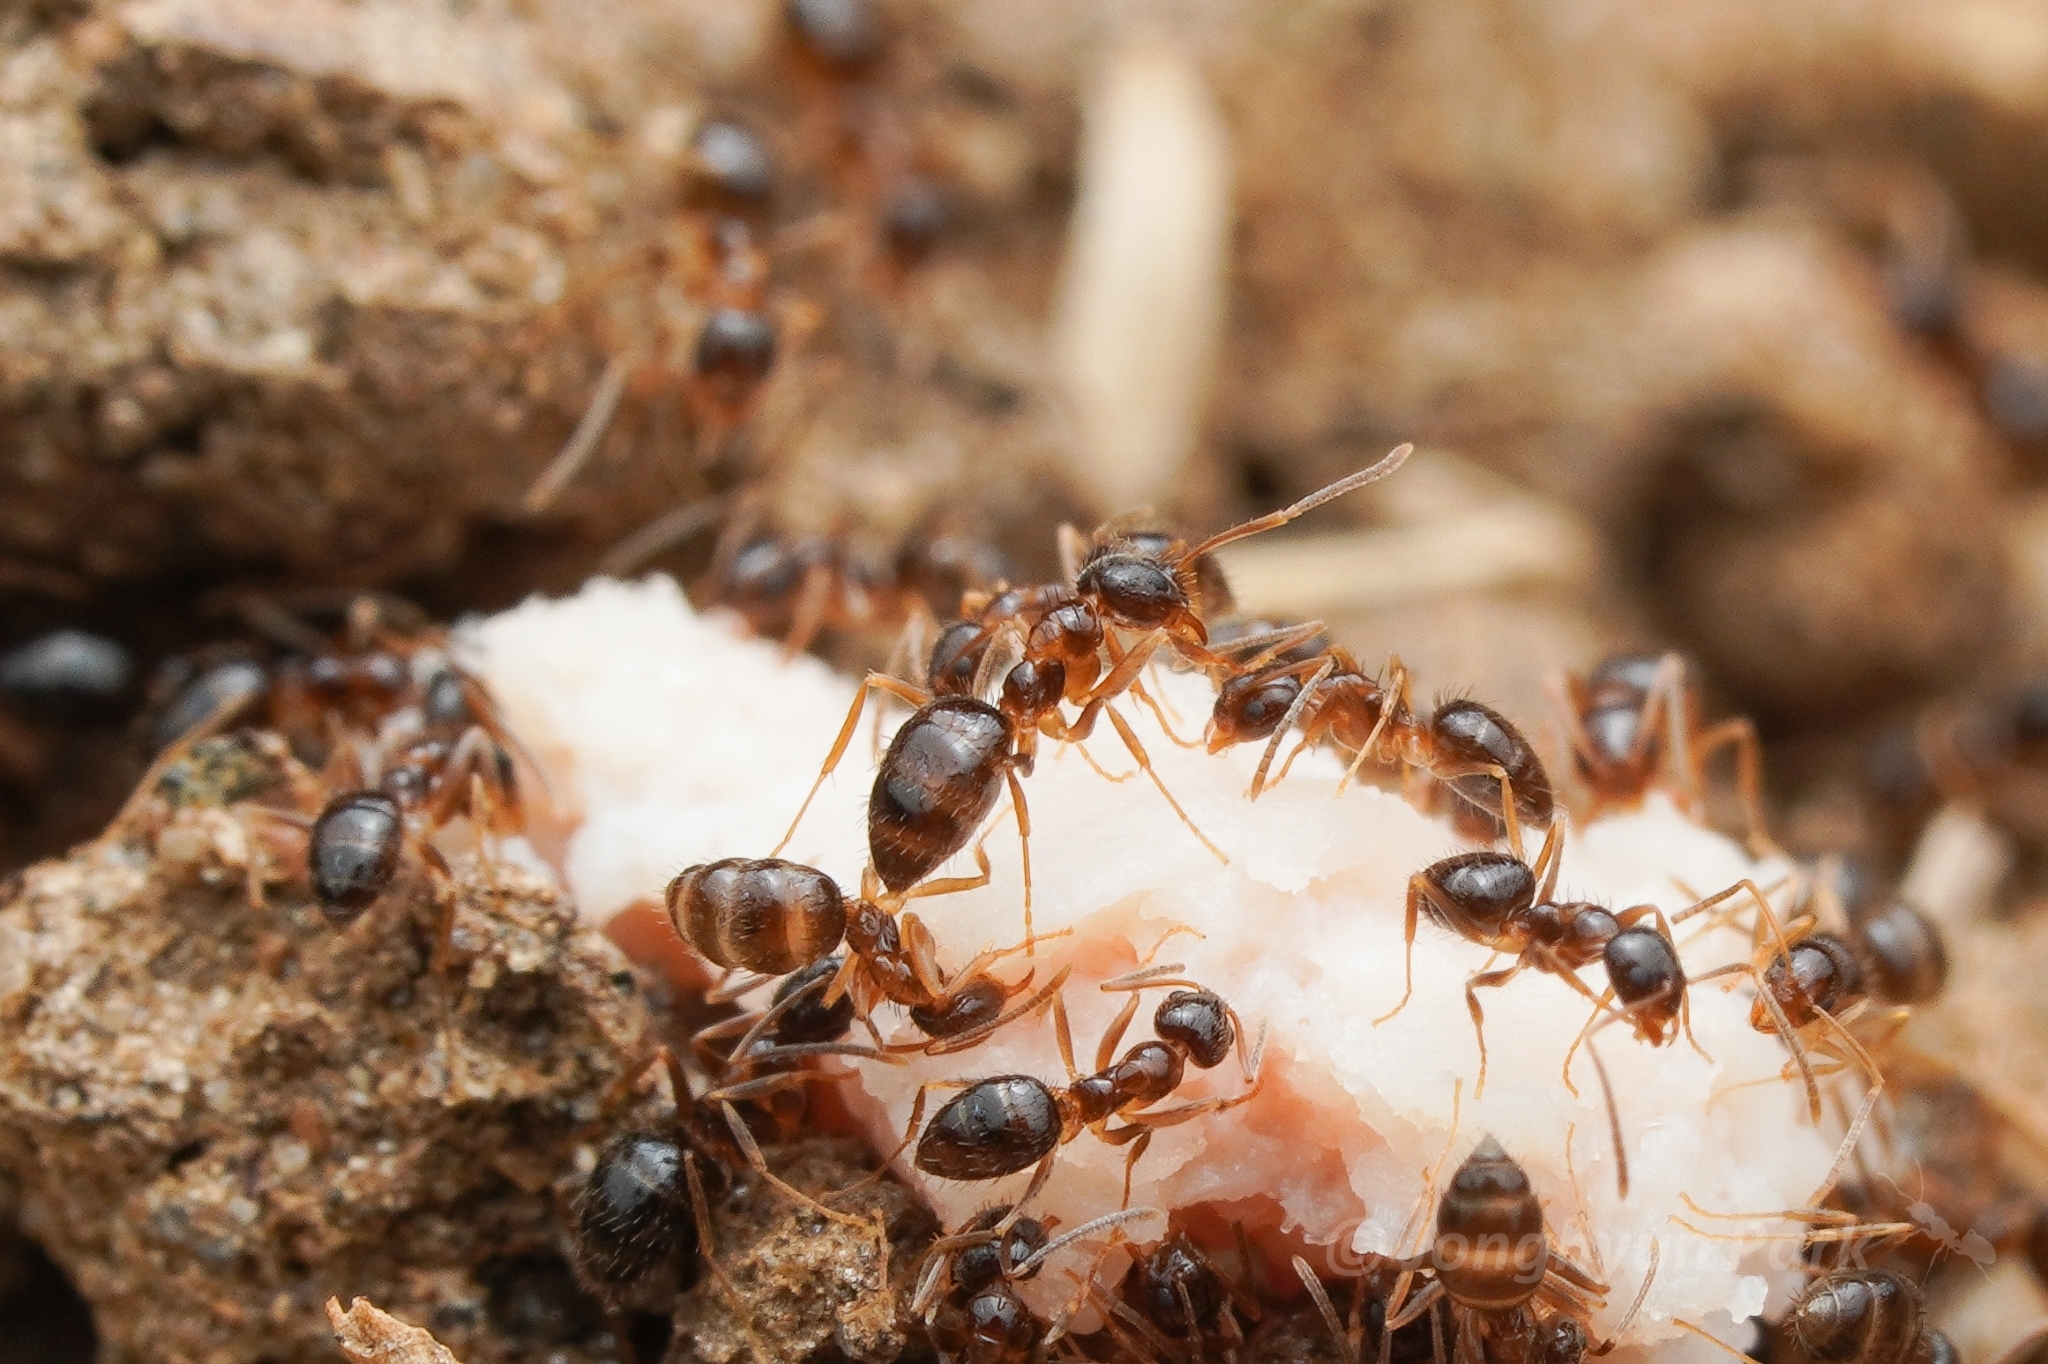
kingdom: Animalia
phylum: Arthropoda
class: Insecta
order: Hymenoptera
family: Formicidae
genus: Paratrechina
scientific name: Paratrechina vividula
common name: Nylander's crazy ant
